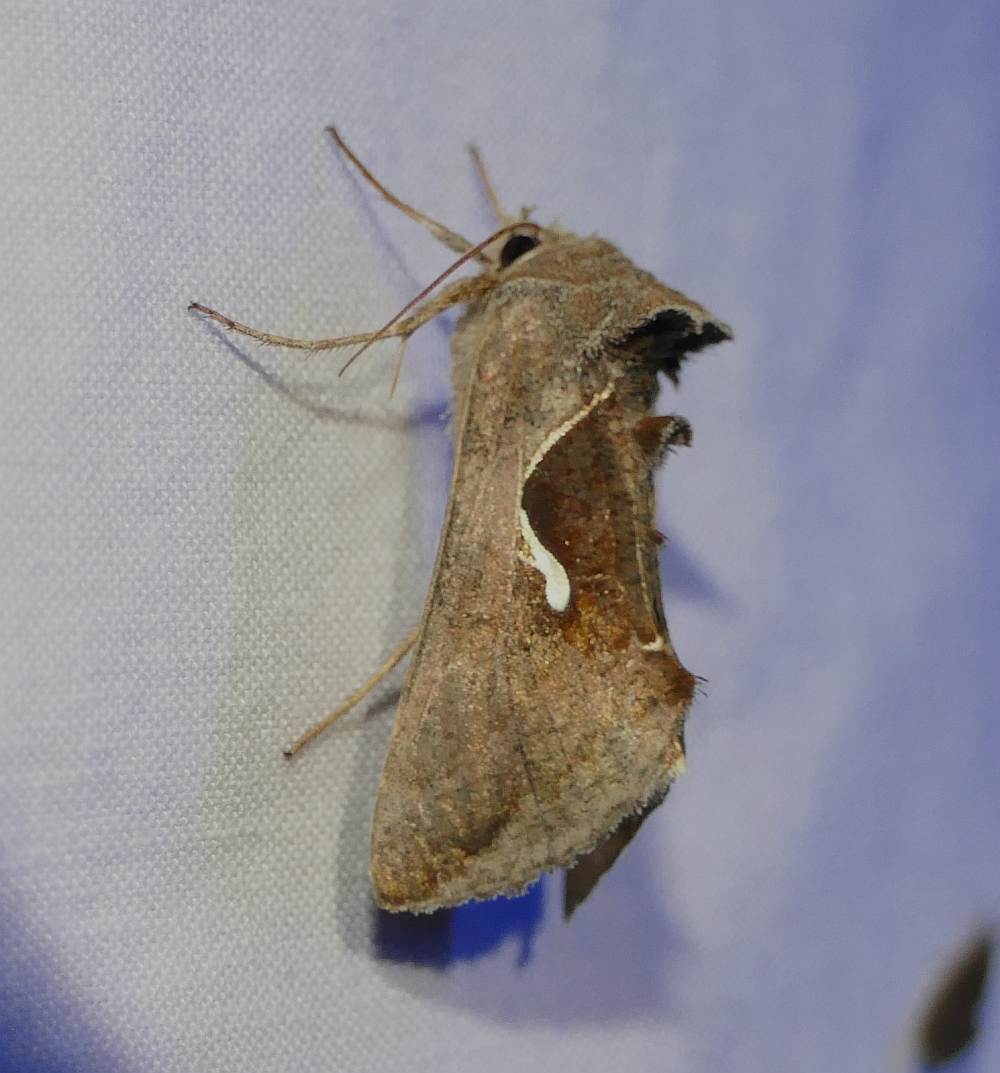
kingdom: Animalia
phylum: Arthropoda
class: Insecta
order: Lepidoptera
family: Noctuidae
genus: Anagrapha
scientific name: Anagrapha falcifera
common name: Celery looper
